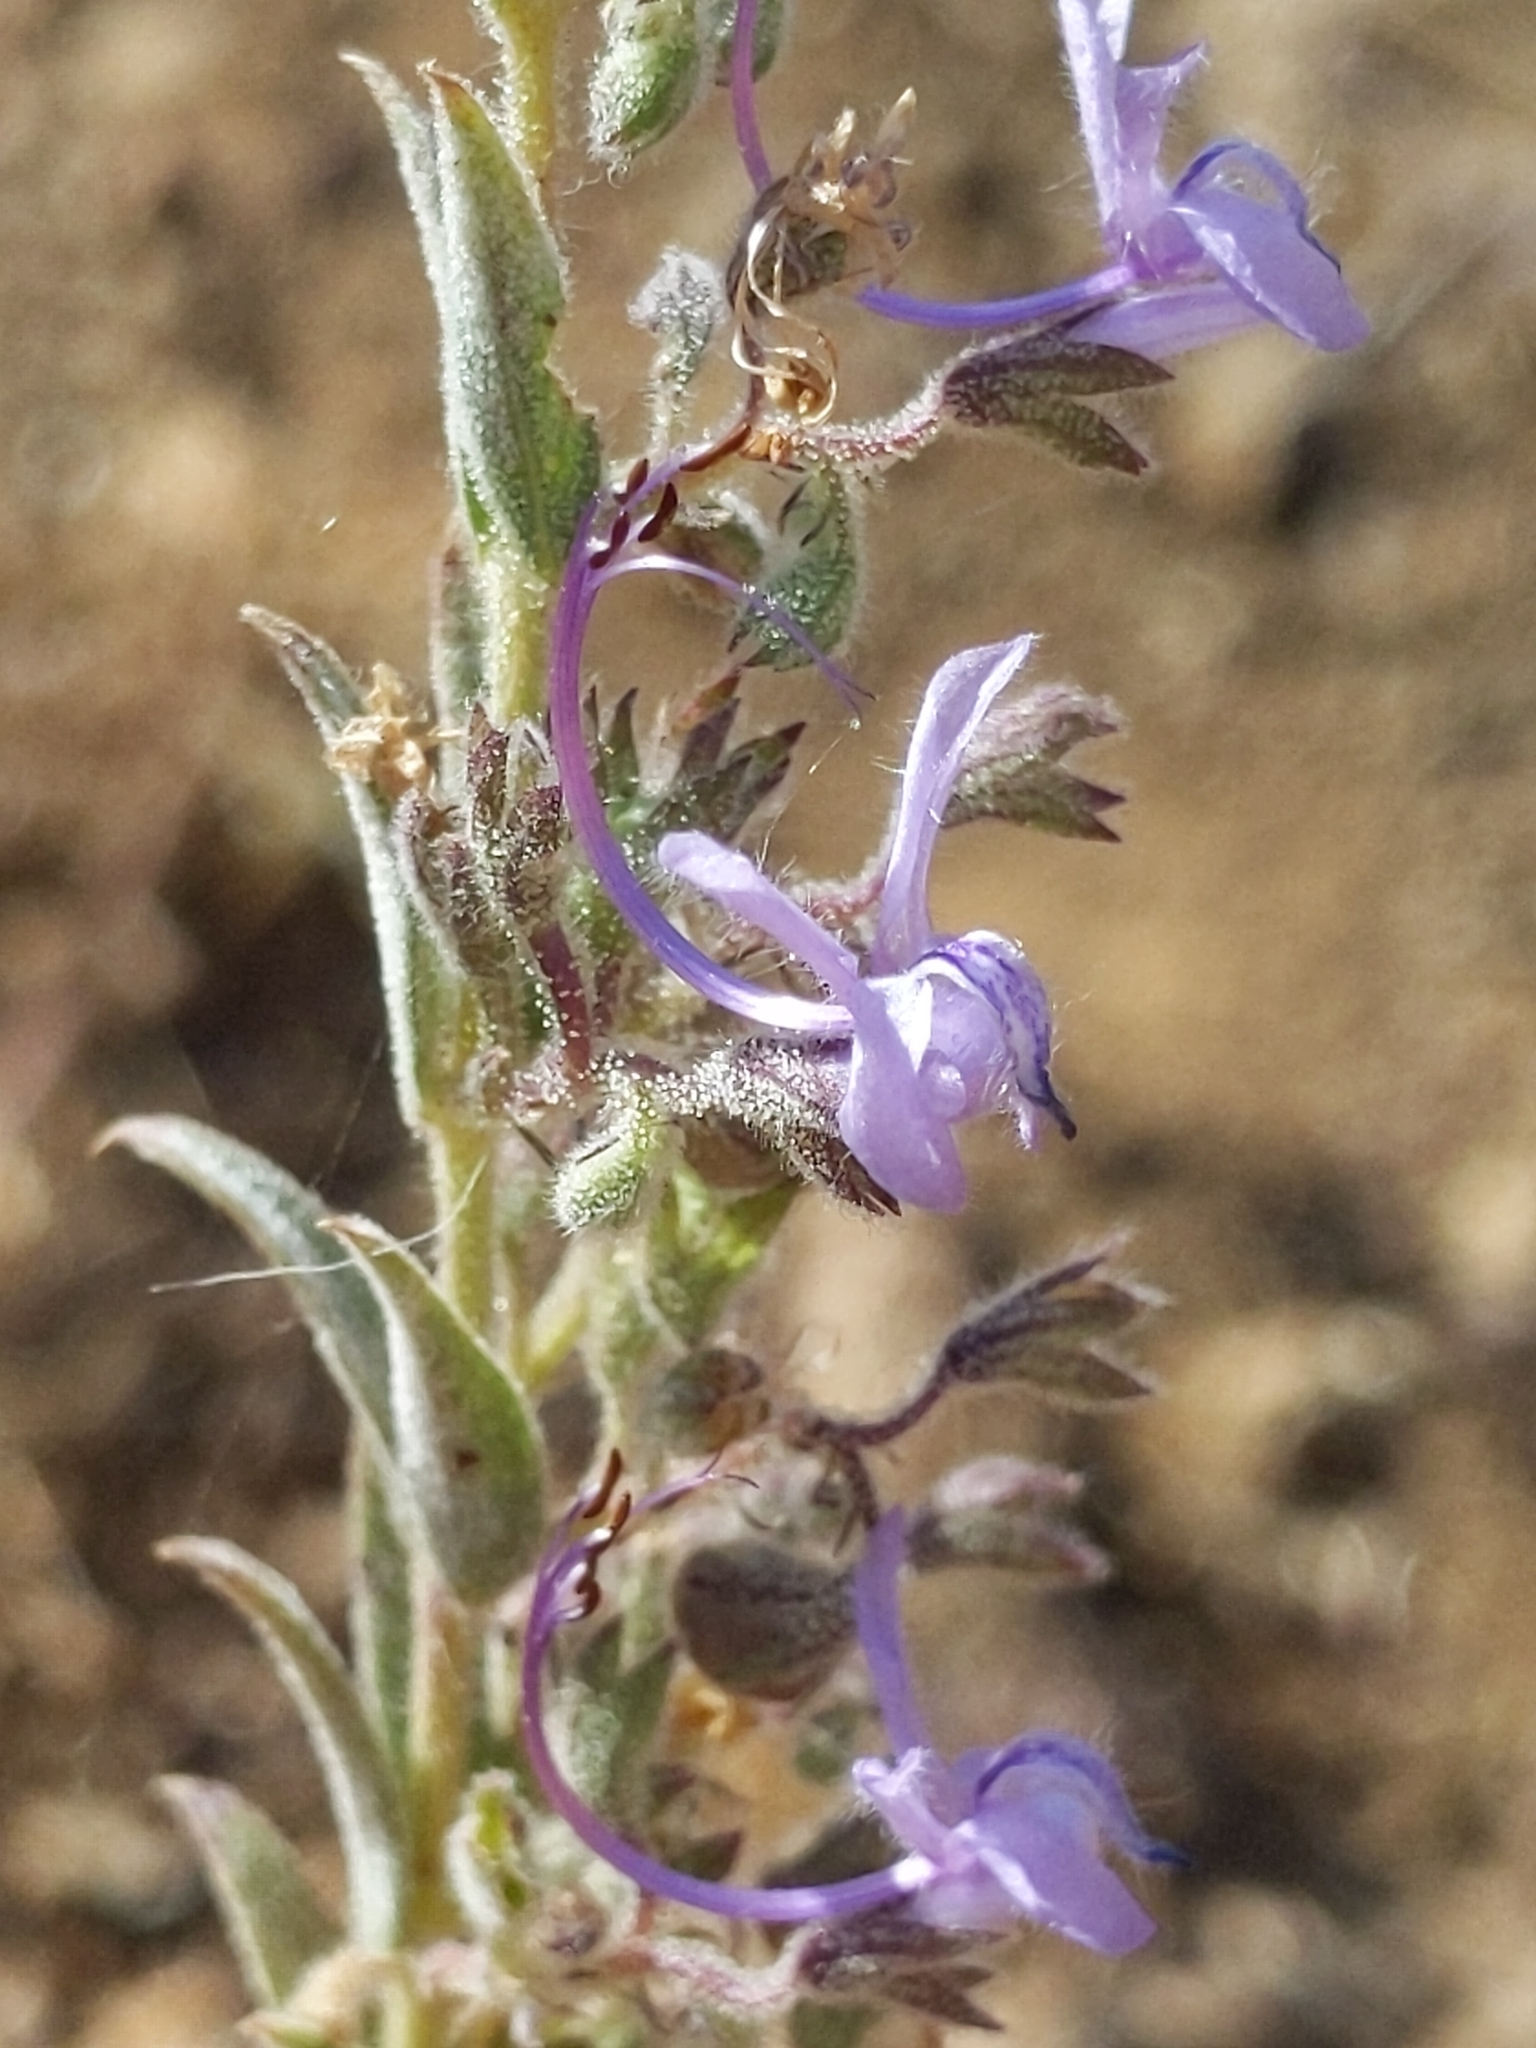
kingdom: Plantae
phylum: Tracheophyta
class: Magnoliopsida
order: Lamiales
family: Lamiaceae
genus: Trichostema
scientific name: Trichostema lanceolatum
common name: Vinegar-weed
